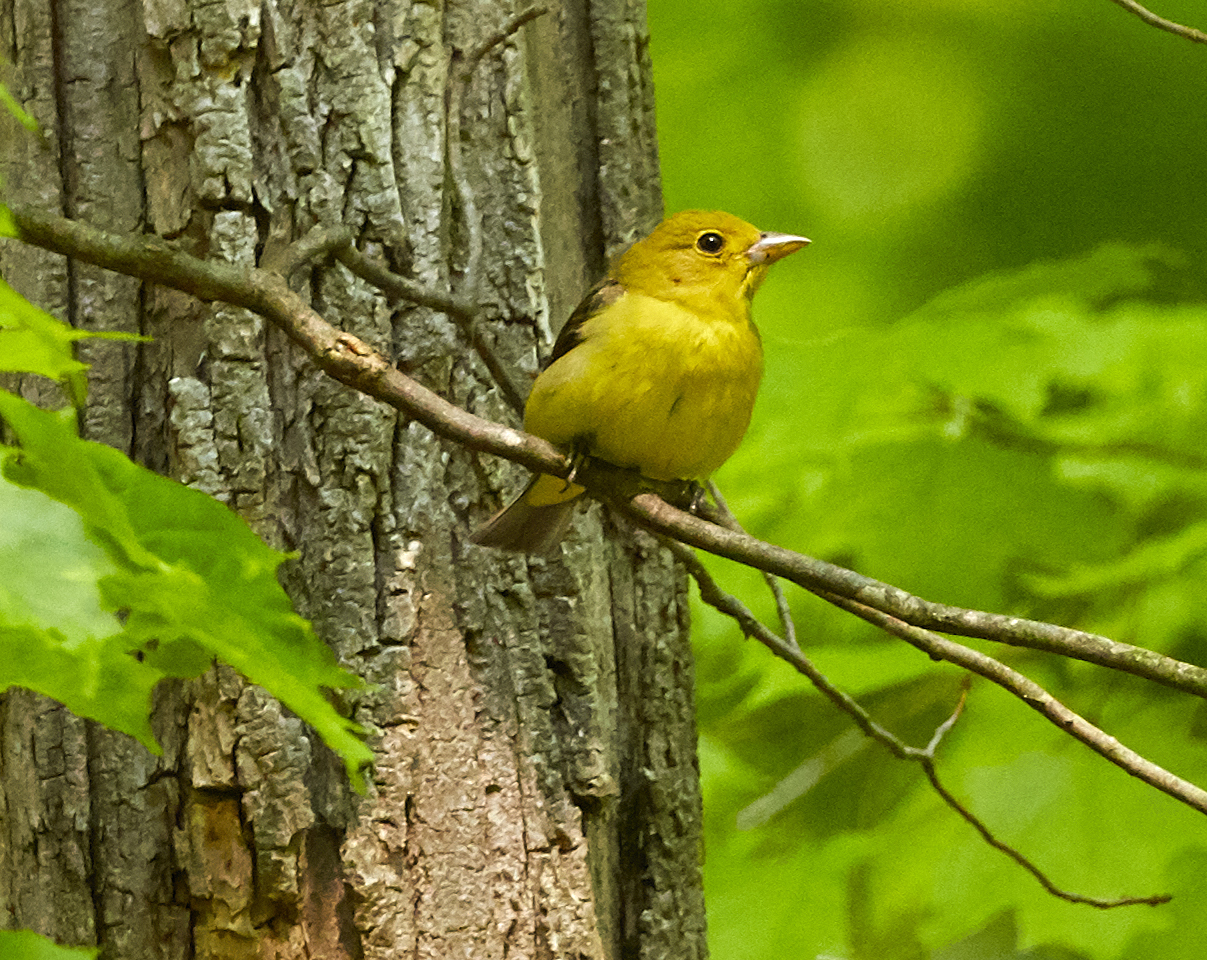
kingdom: Animalia
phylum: Chordata
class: Aves
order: Passeriformes
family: Cardinalidae
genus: Piranga
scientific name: Piranga olivacea
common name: Scarlet tanager
